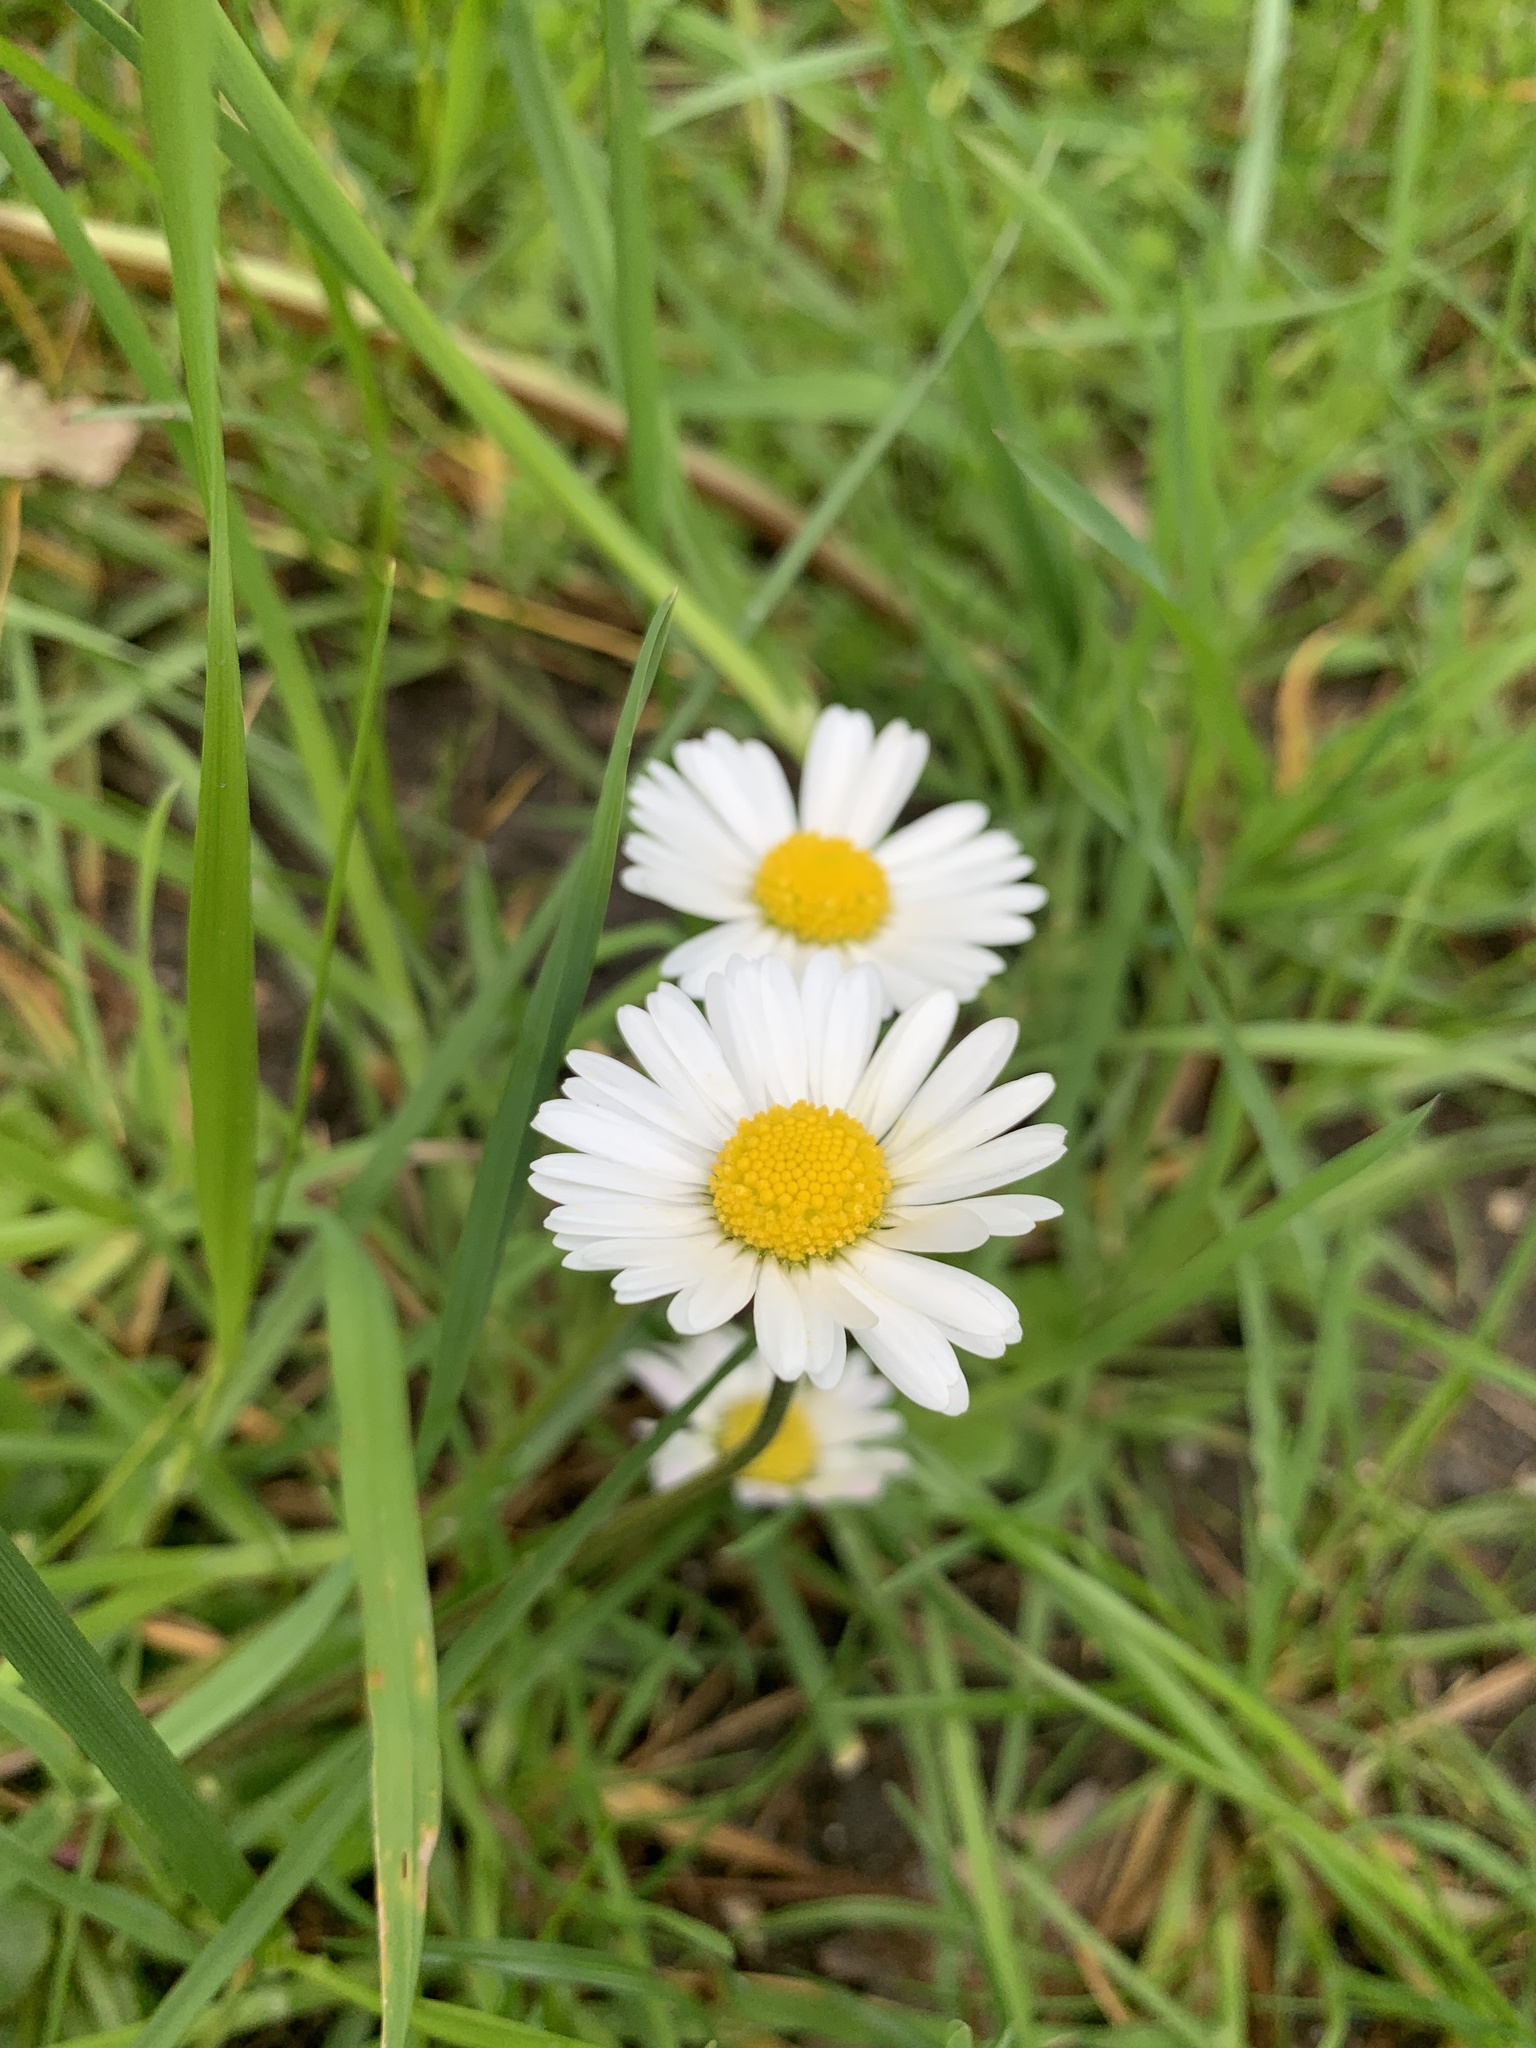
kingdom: Plantae
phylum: Tracheophyta
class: Magnoliopsida
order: Asterales
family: Asteraceae
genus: Bellis
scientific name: Bellis perennis
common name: Lawndaisy
